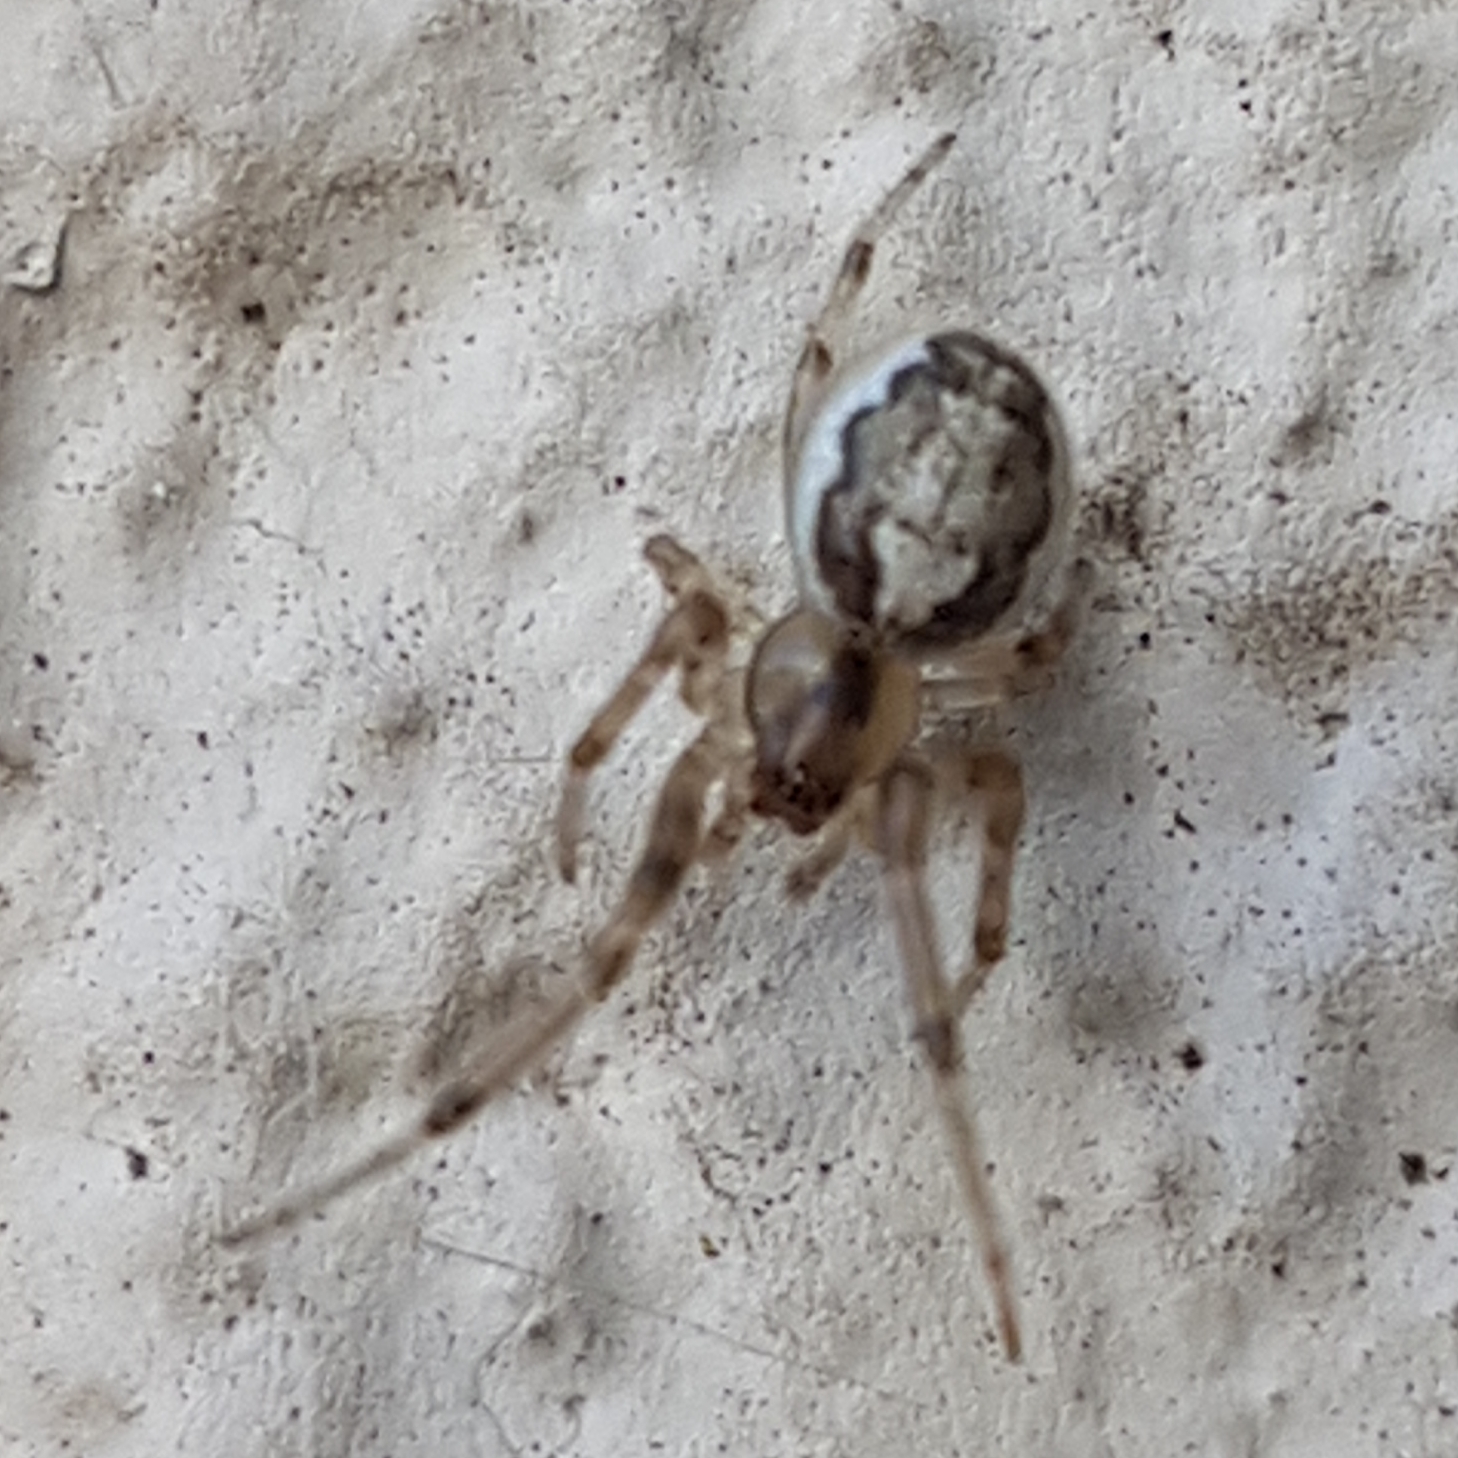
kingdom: Animalia
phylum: Arthropoda
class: Arachnida
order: Araneae
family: Araneidae
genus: Zygiella
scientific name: Zygiella x-notata
